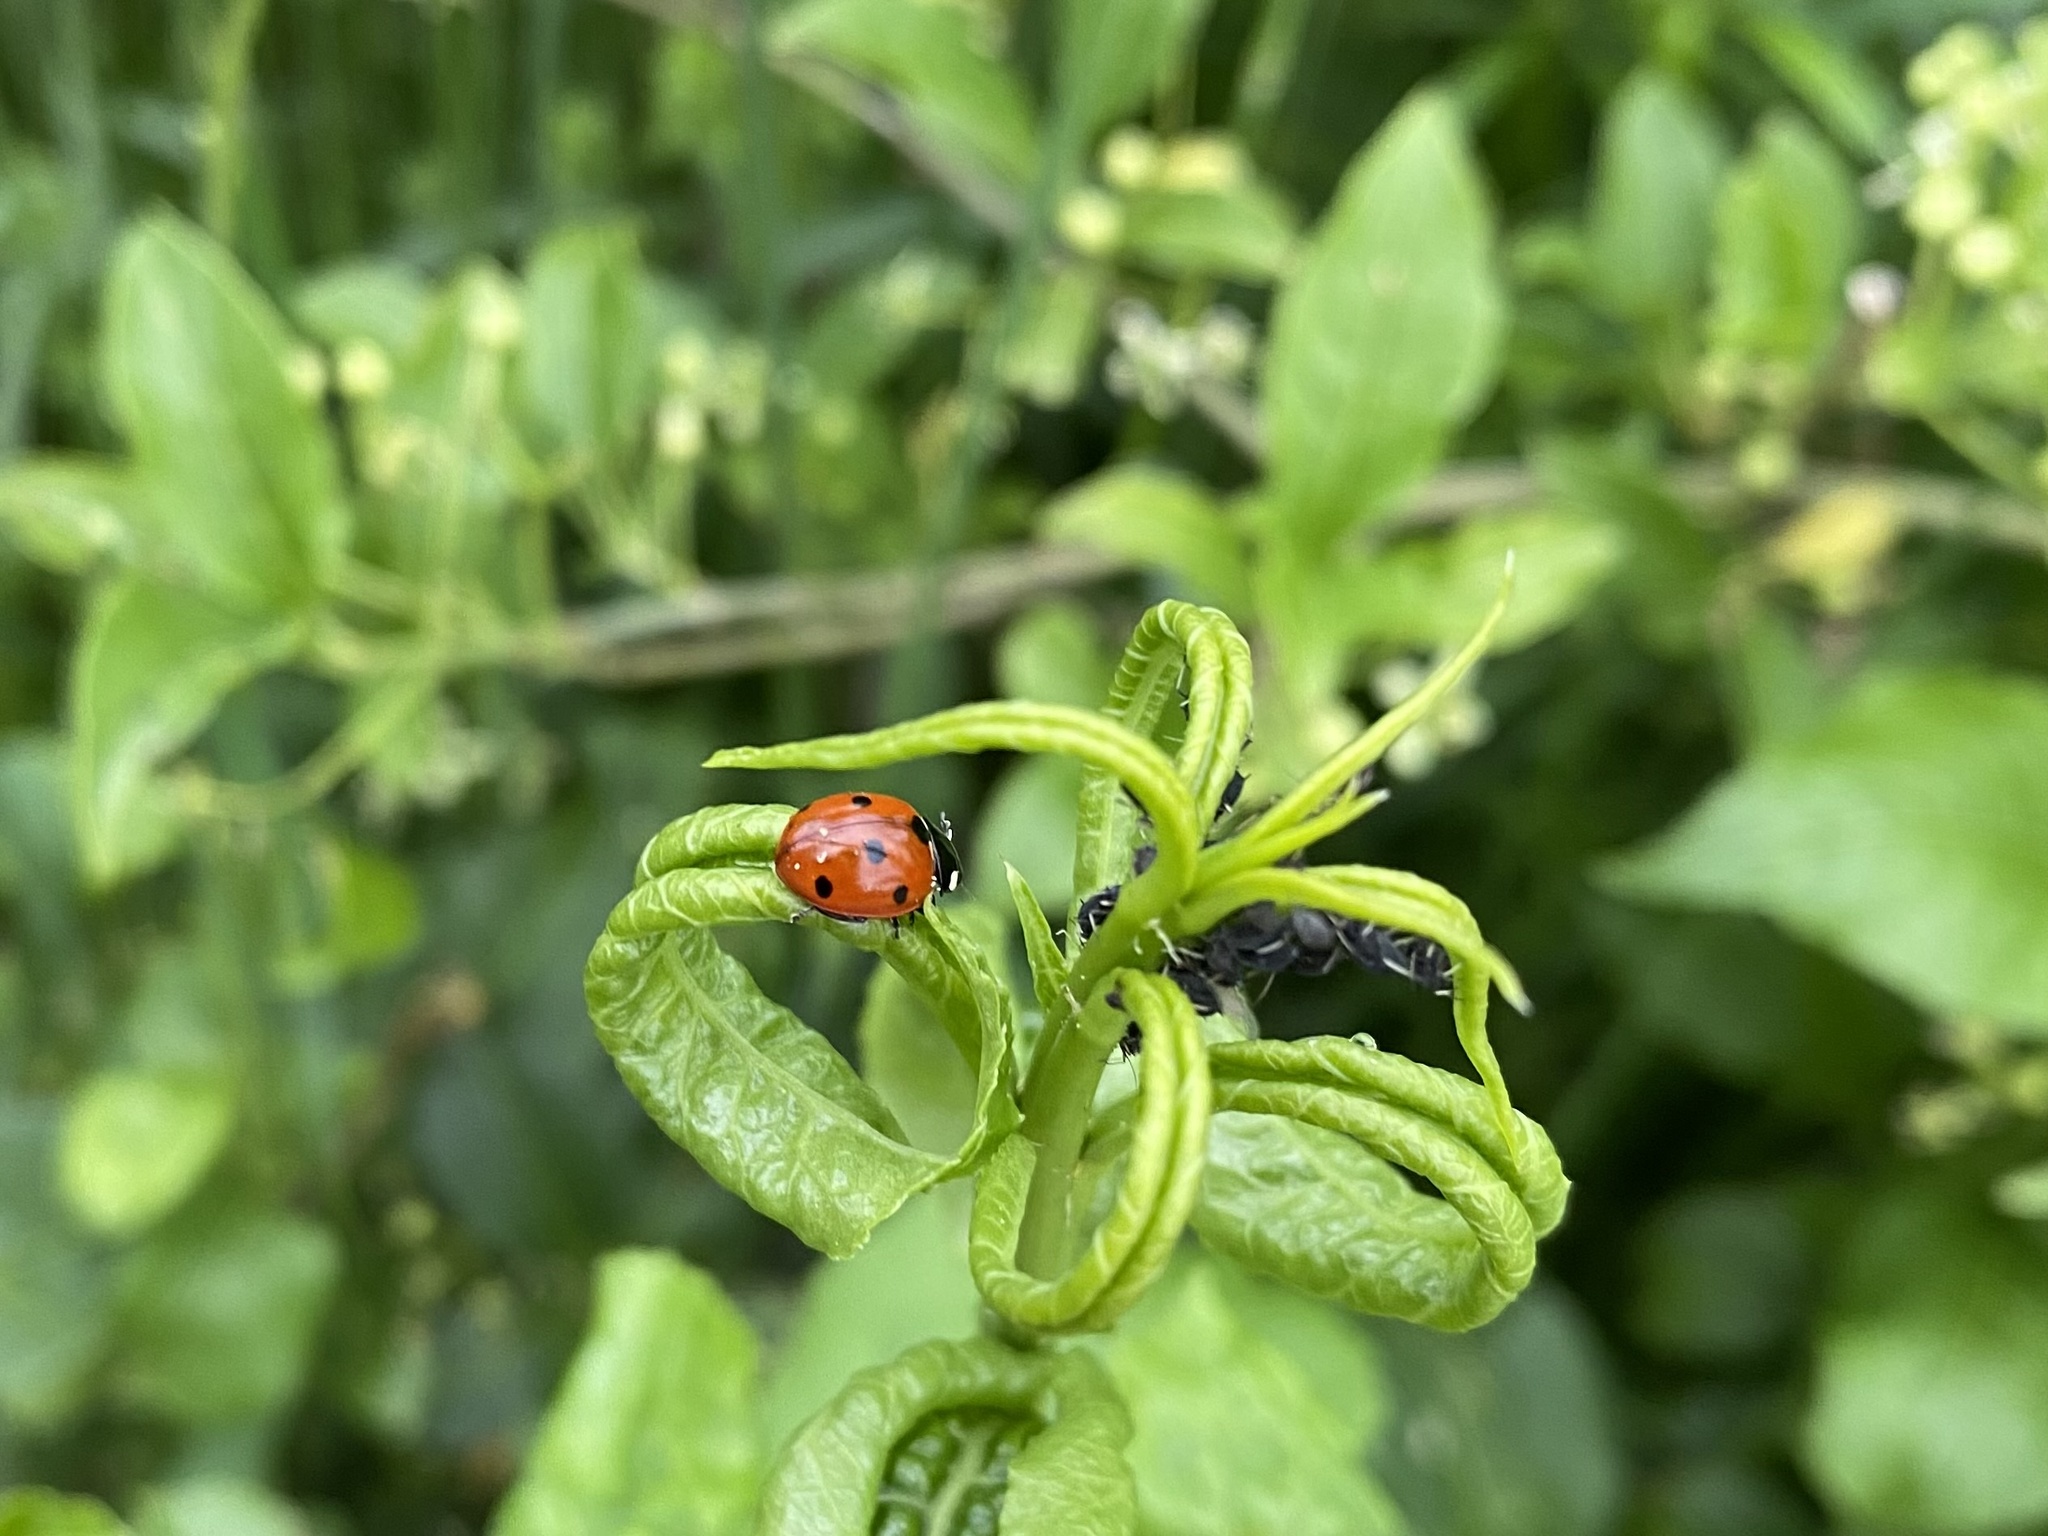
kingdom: Animalia
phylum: Arthropoda
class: Insecta
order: Coleoptera
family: Coccinellidae
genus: Coccinella
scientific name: Coccinella septempunctata
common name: Sevenspotted lady beetle
